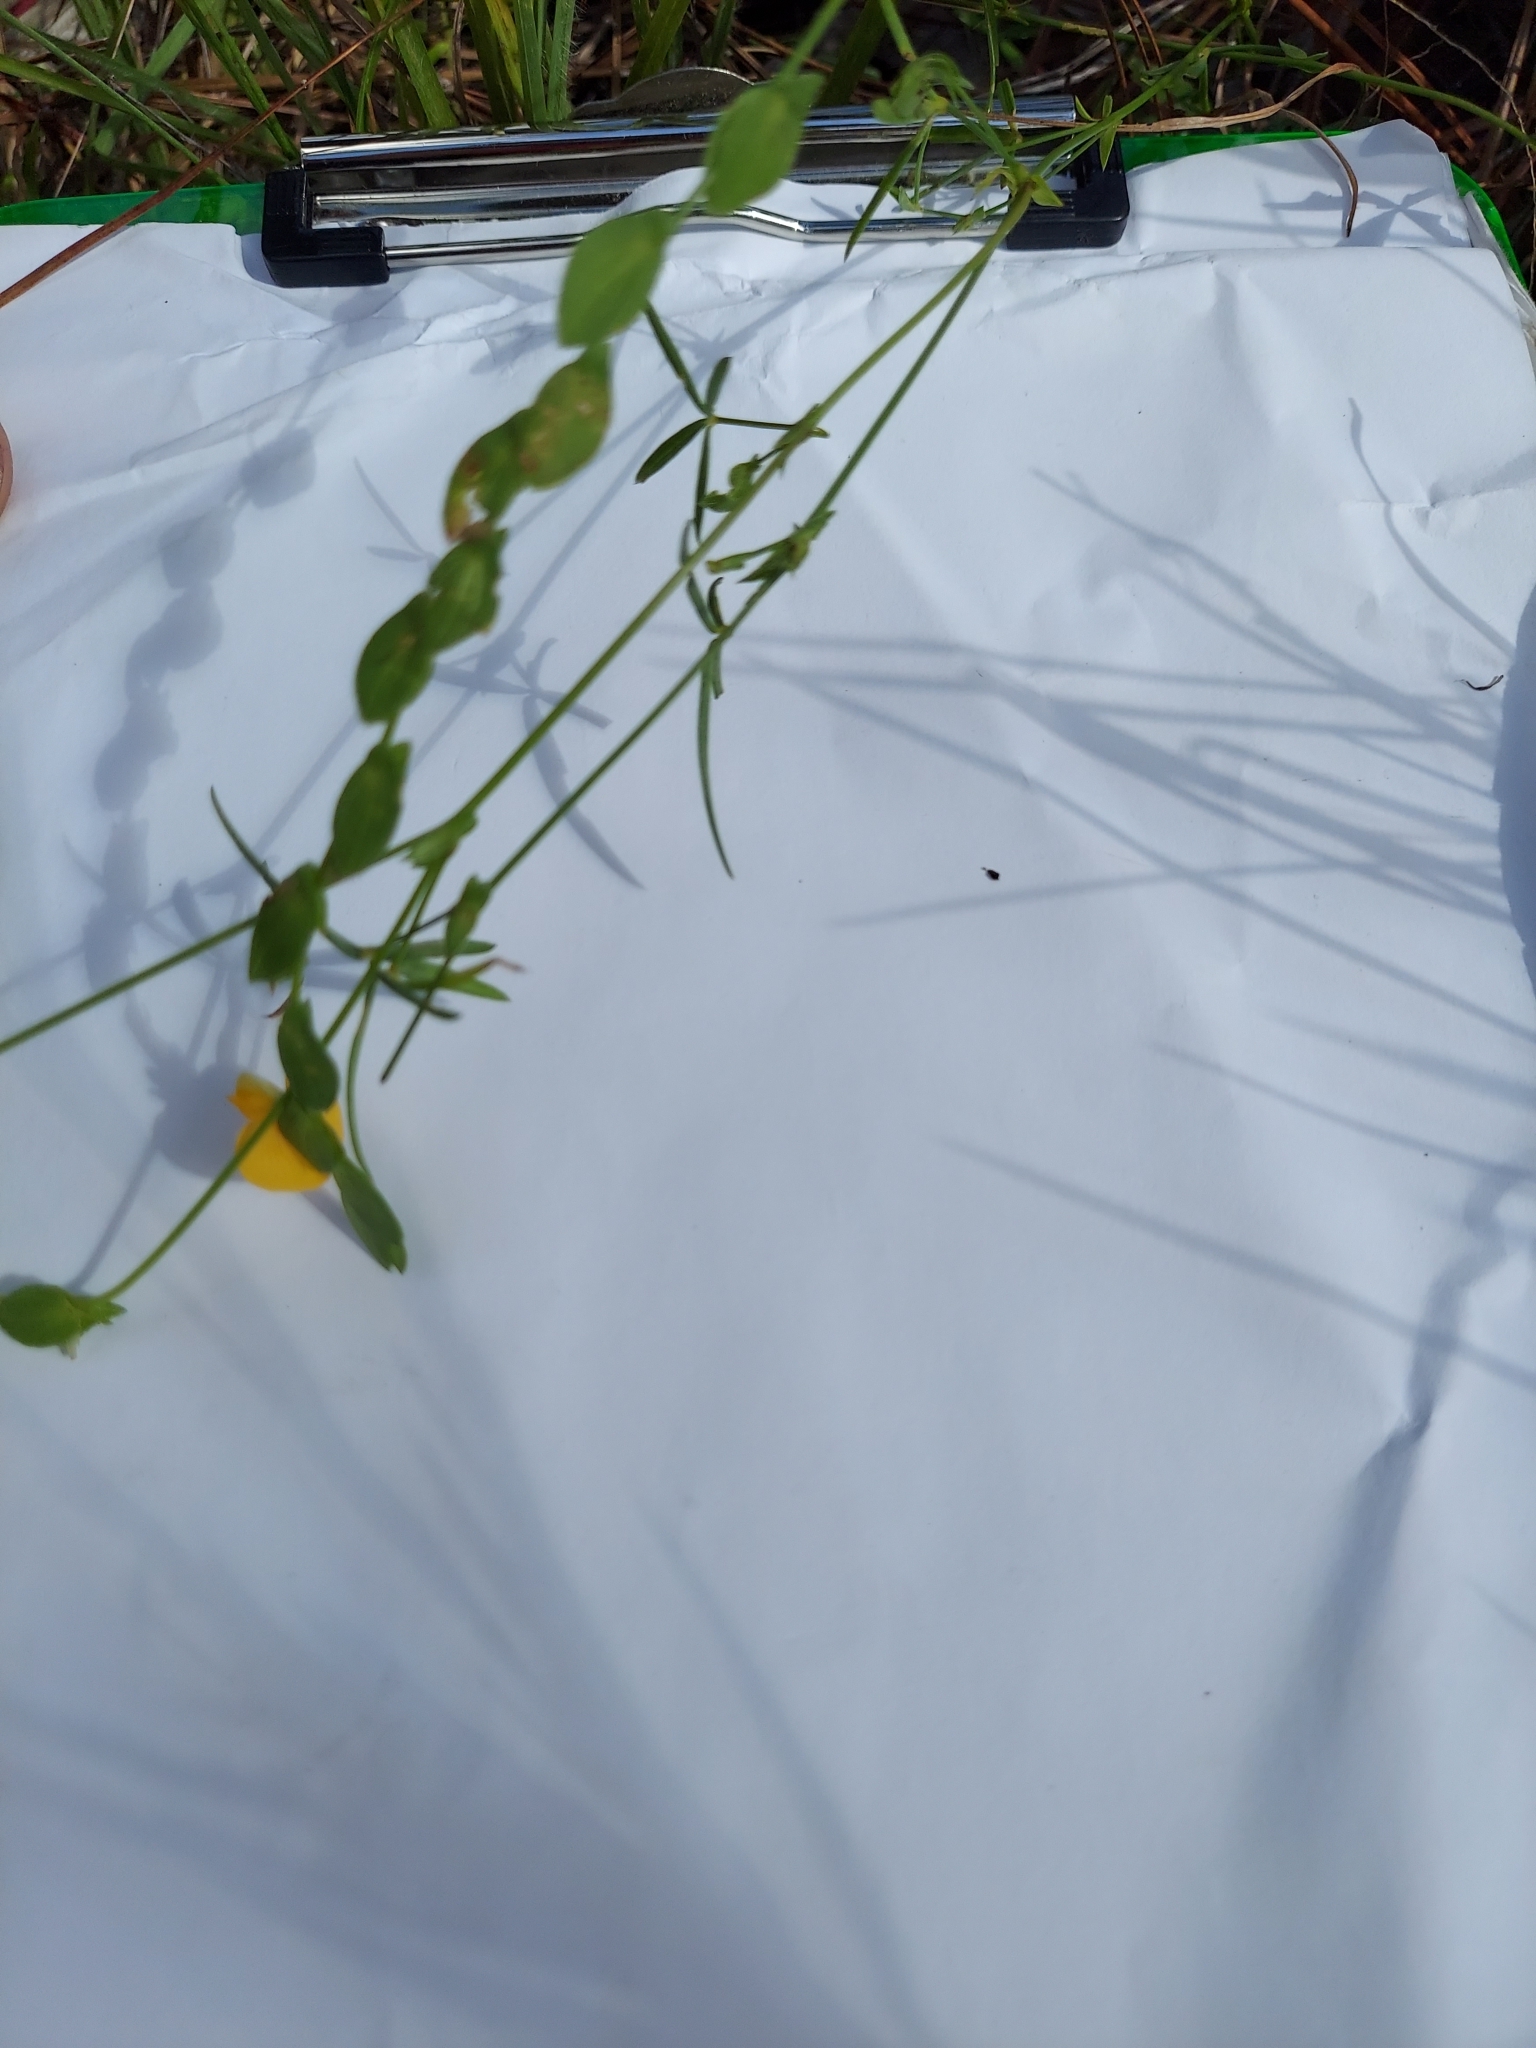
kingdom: Plantae
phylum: Tracheophyta
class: Magnoliopsida
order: Fabales
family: Fabaceae
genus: Zornia
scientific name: Zornia bracteata
